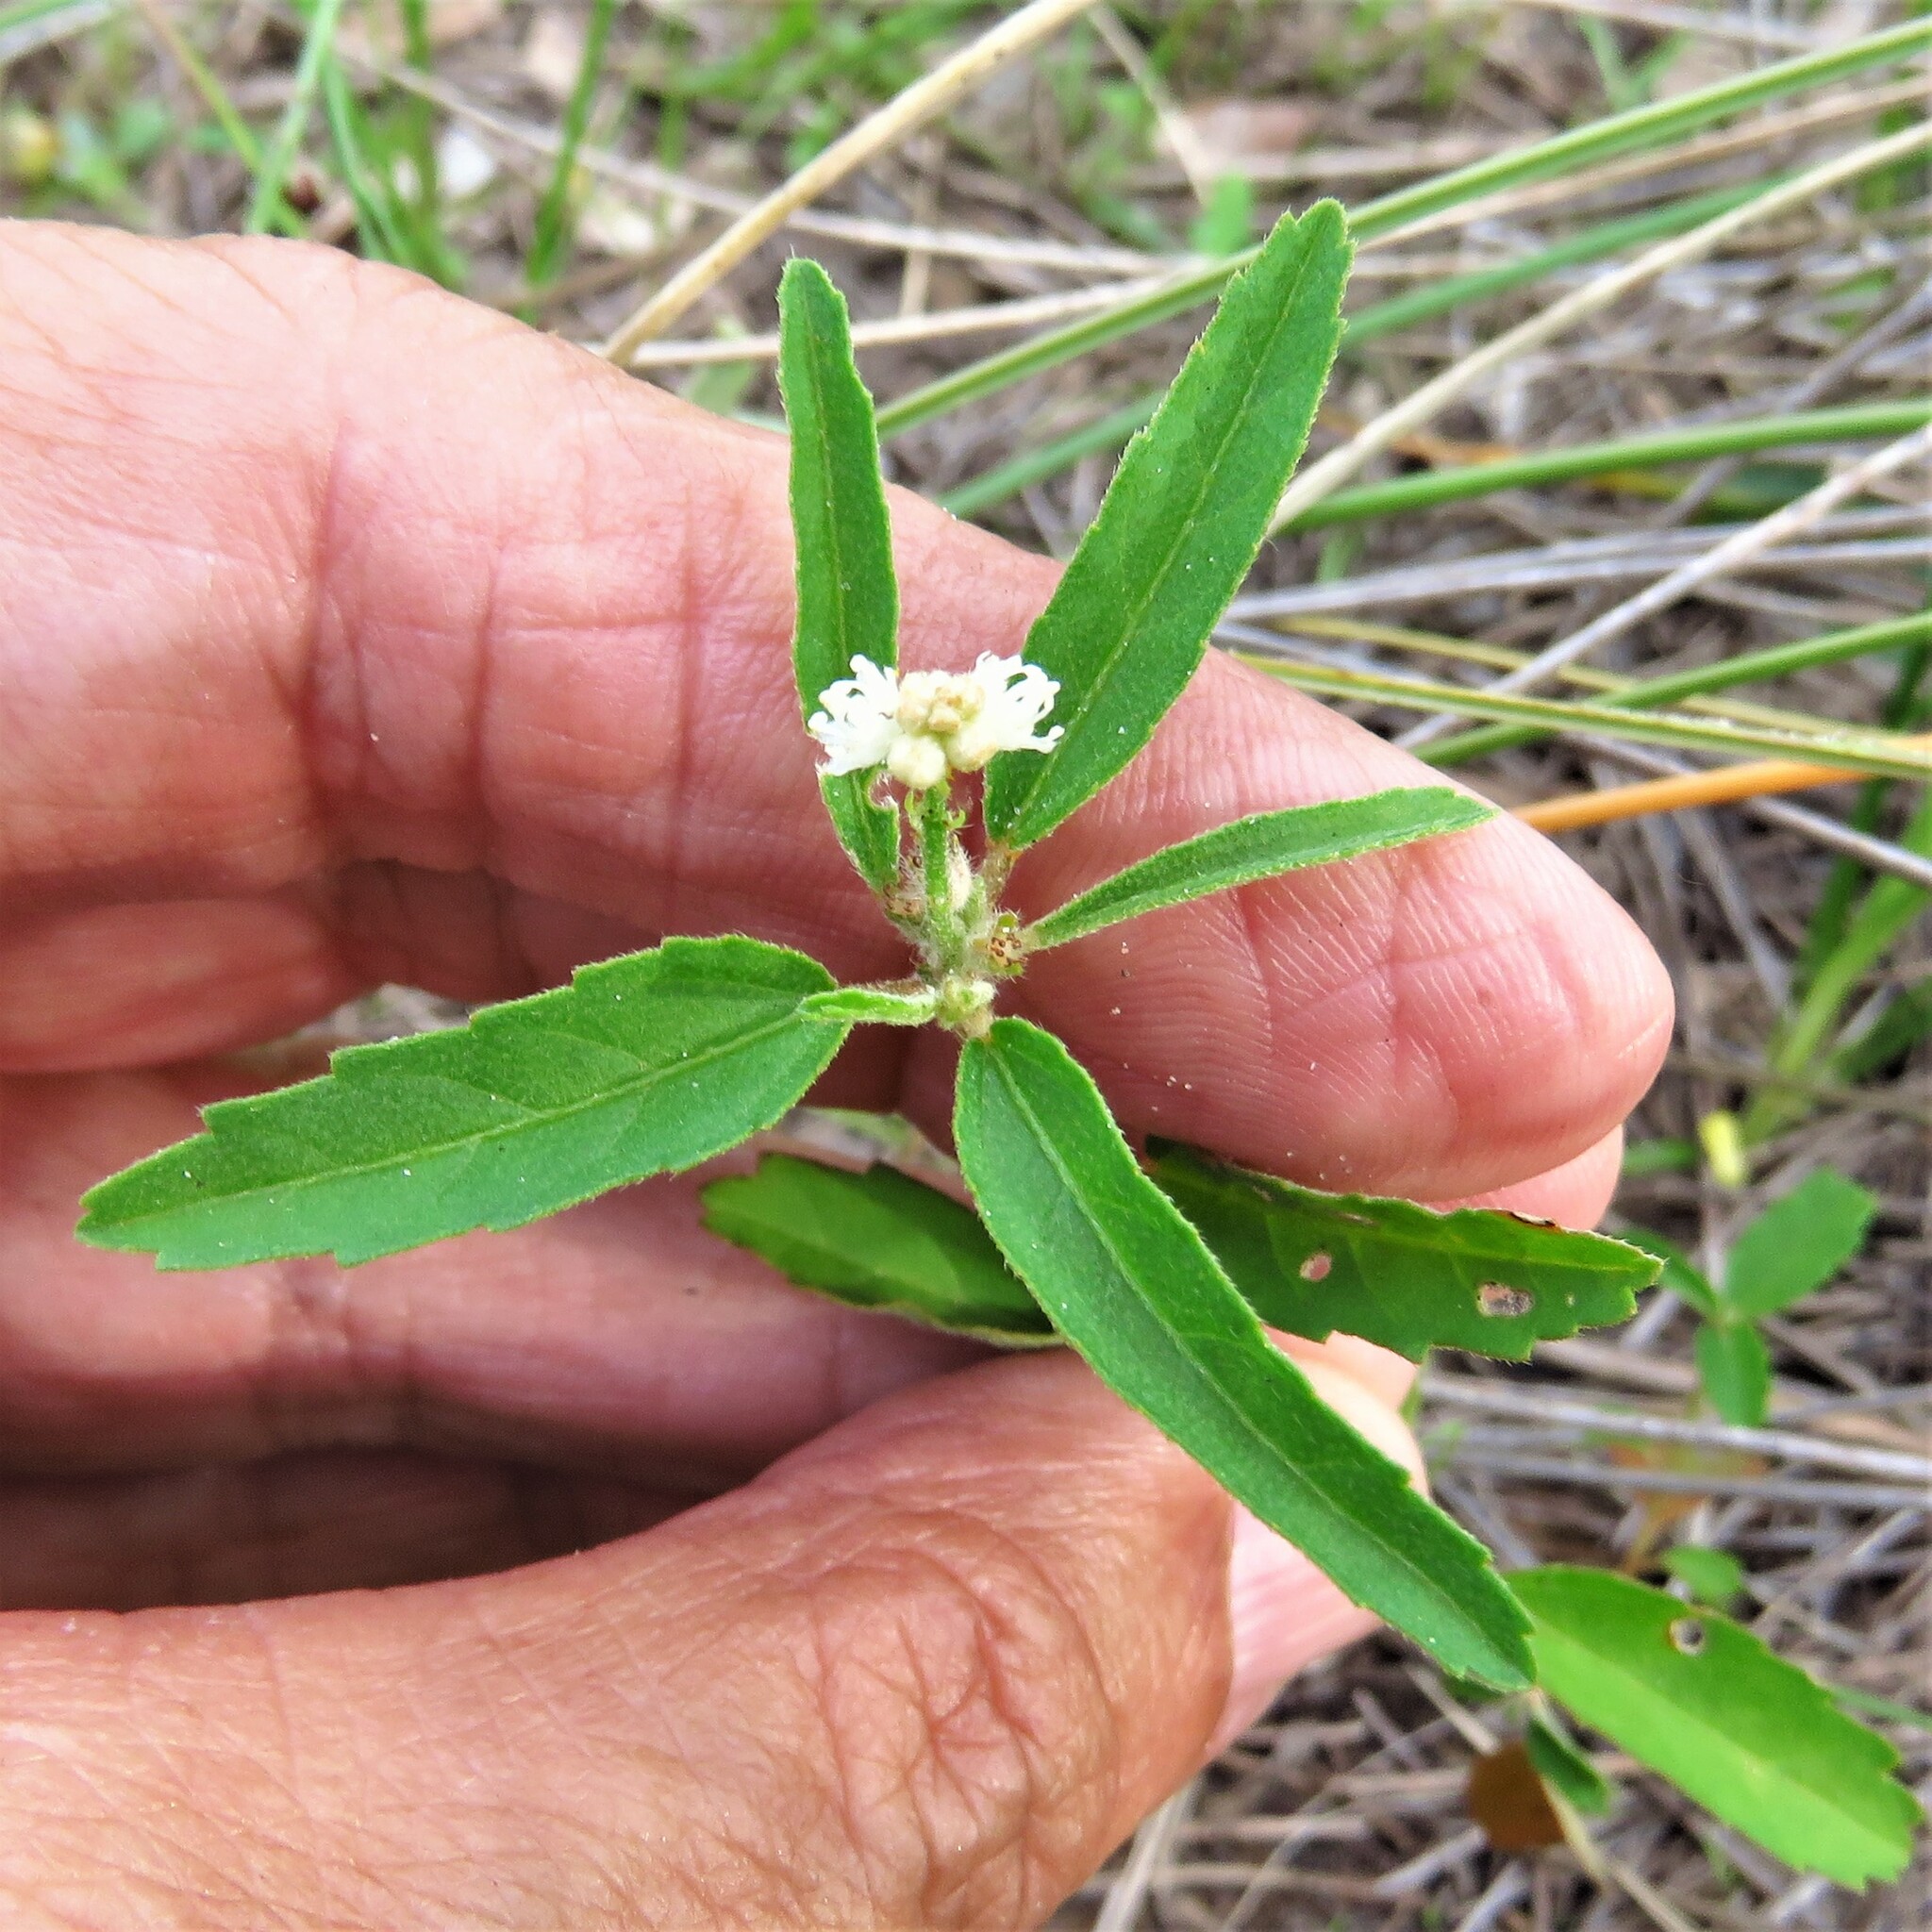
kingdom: Plantae
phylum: Tracheophyta
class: Magnoliopsida
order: Malpighiales
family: Euphorbiaceae
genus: Croton
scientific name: Croton glandulosus
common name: Tropic croton
